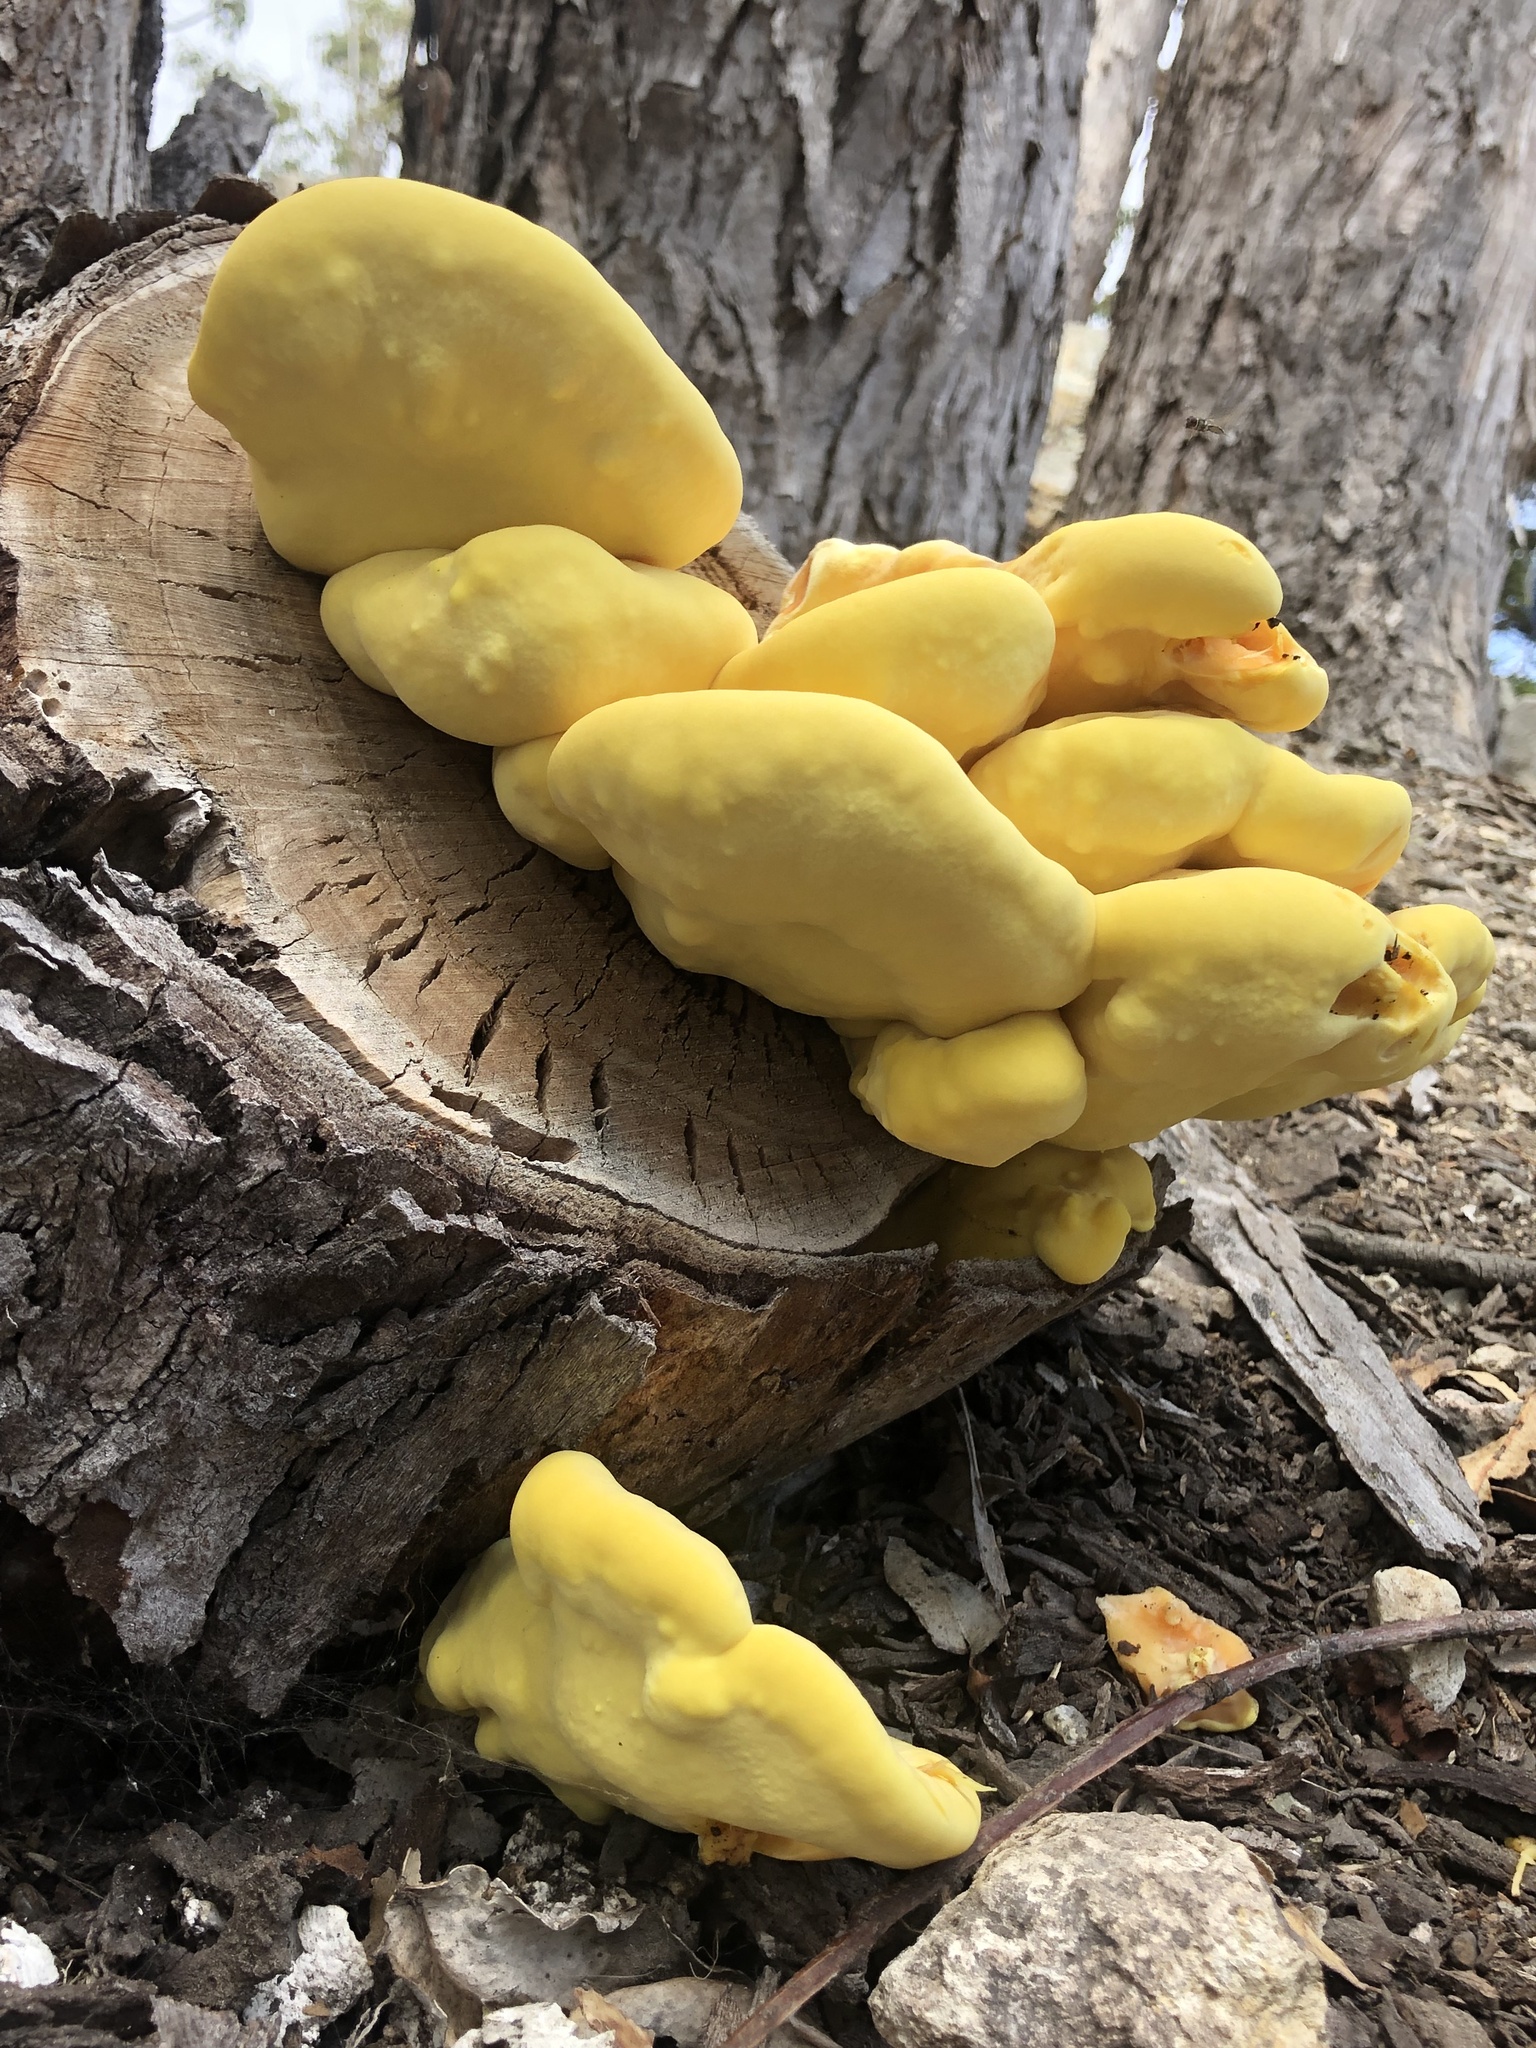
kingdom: Fungi
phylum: Basidiomycota
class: Agaricomycetes
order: Polyporales
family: Laetiporaceae
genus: Laetiporus
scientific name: Laetiporus gilbertsonii
